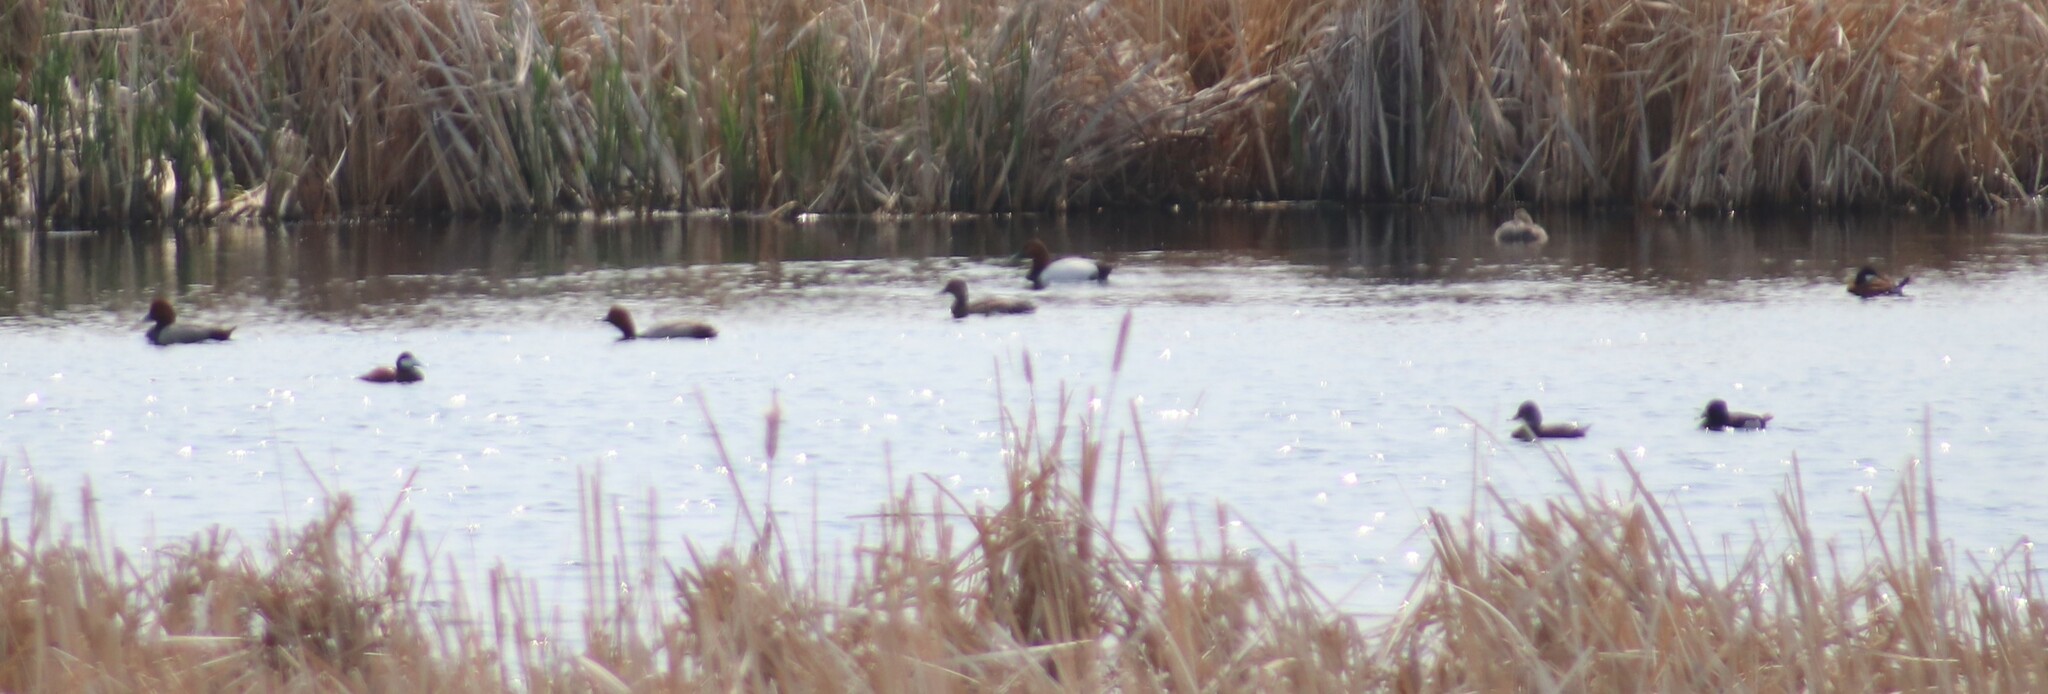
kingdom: Animalia
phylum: Chordata
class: Aves
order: Anseriformes
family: Anatidae
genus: Aythya
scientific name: Aythya americana
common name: Redhead
